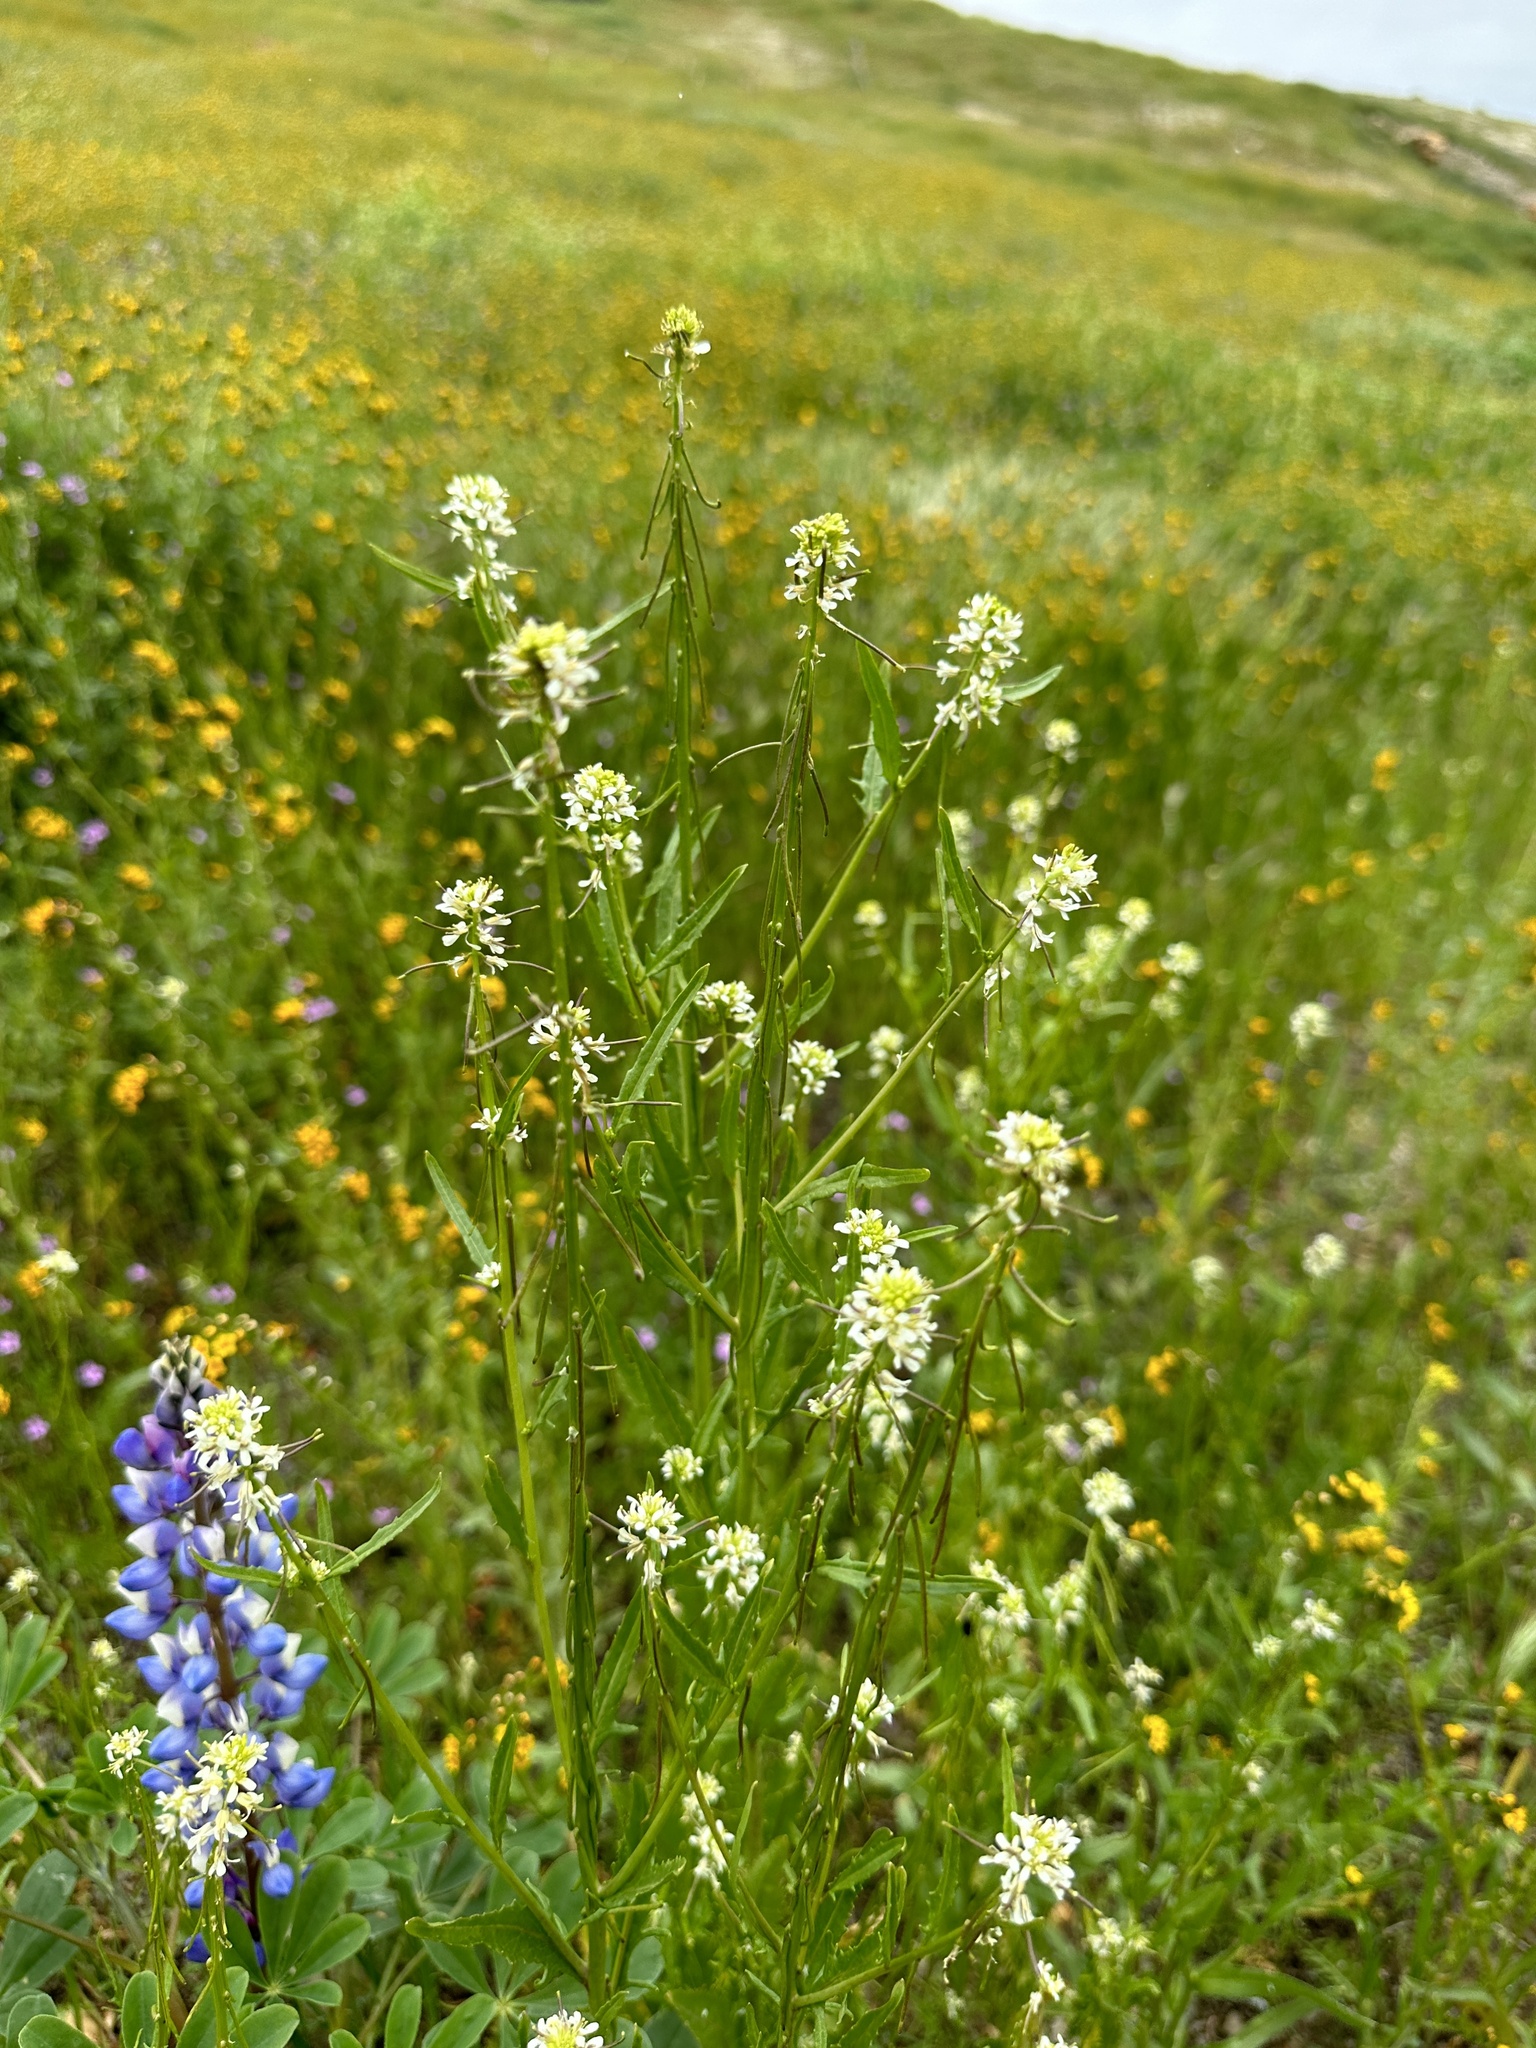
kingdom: Plantae
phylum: Tracheophyta
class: Magnoliopsida
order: Brassicales
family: Brassicaceae
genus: Streptanthus
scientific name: Streptanthus lasiophyllus
